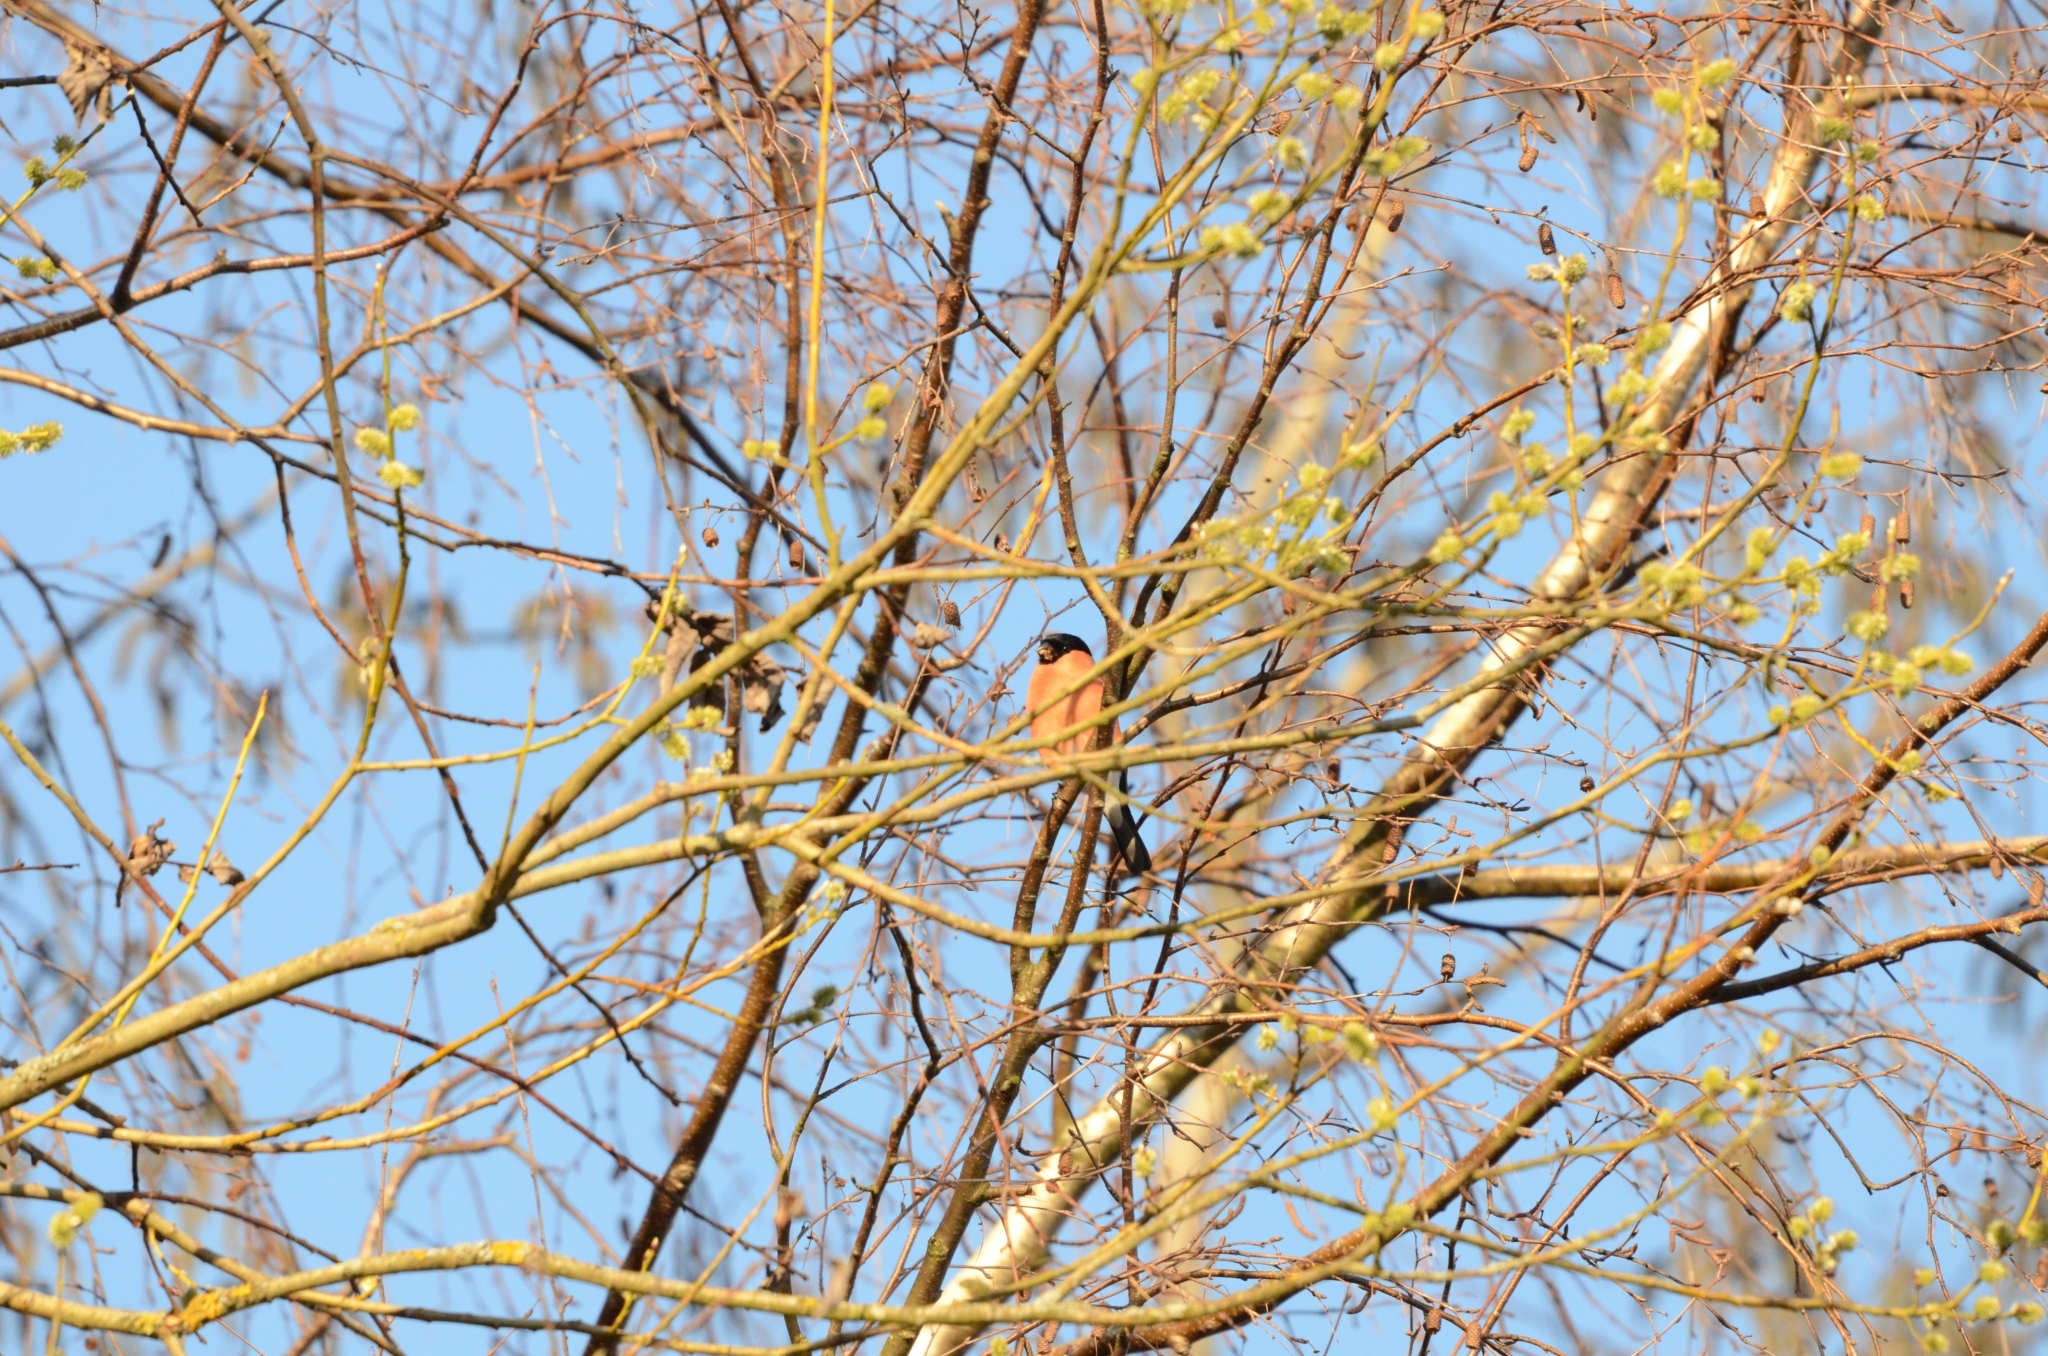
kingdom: Animalia
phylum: Chordata
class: Aves
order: Passeriformes
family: Fringillidae
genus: Pyrrhula
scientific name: Pyrrhula pyrrhula
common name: Eurasian bullfinch
